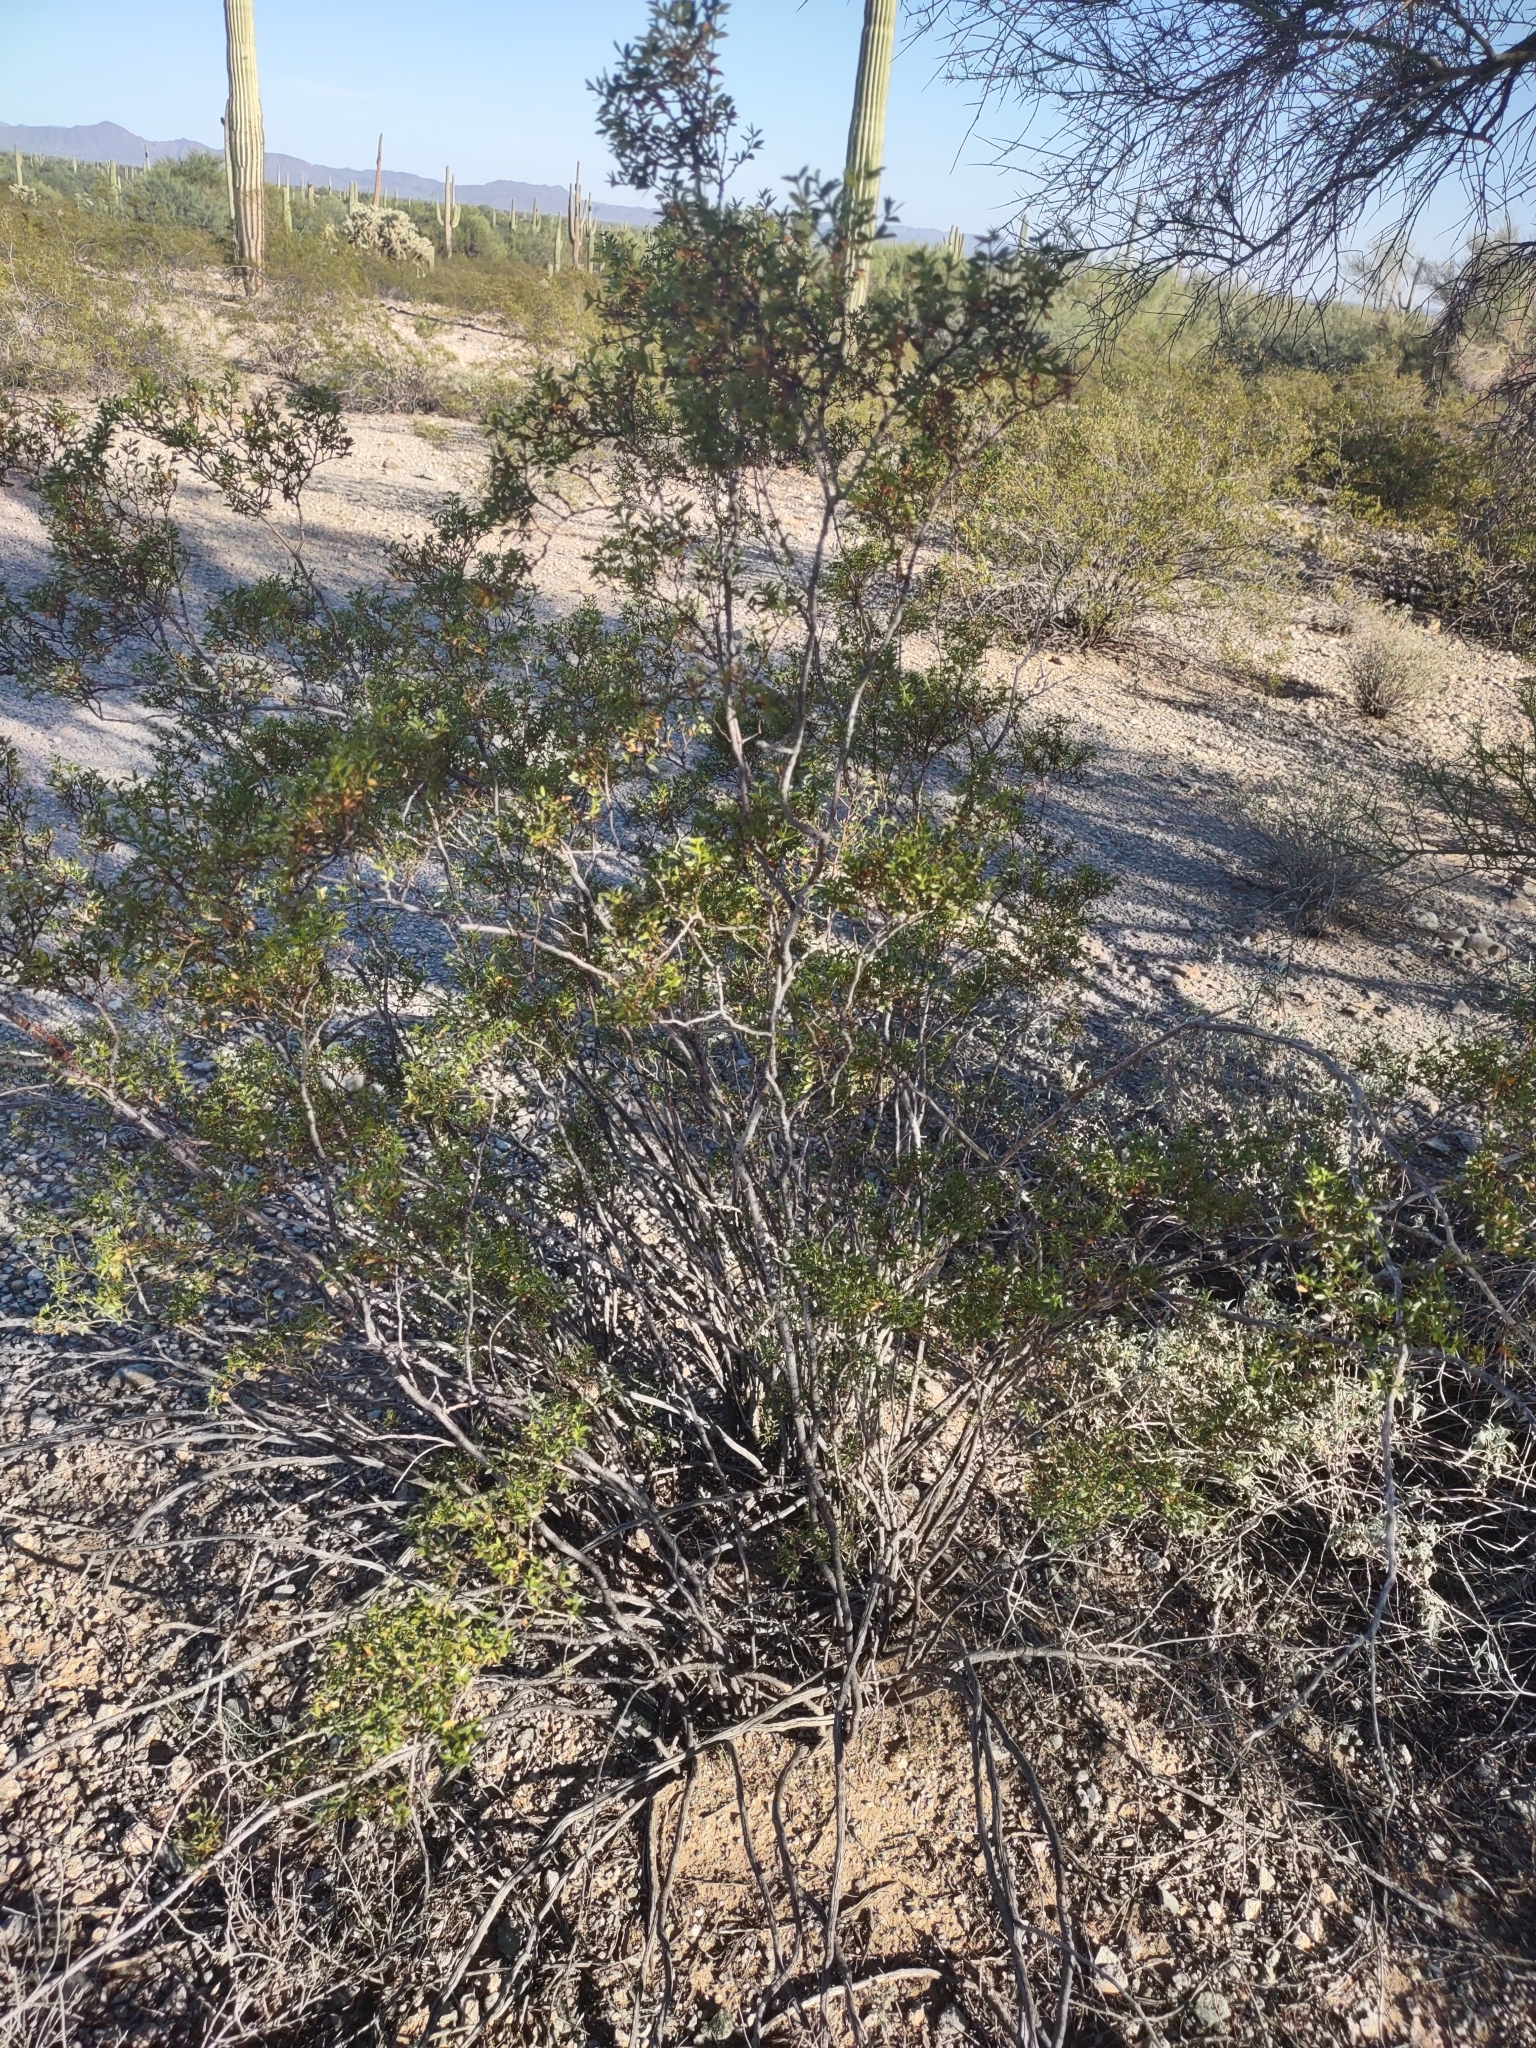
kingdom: Plantae
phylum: Tracheophyta
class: Magnoliopsida
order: Zygophyllales
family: Zygophyllaceae
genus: Larrea
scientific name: Larrea tridentata
